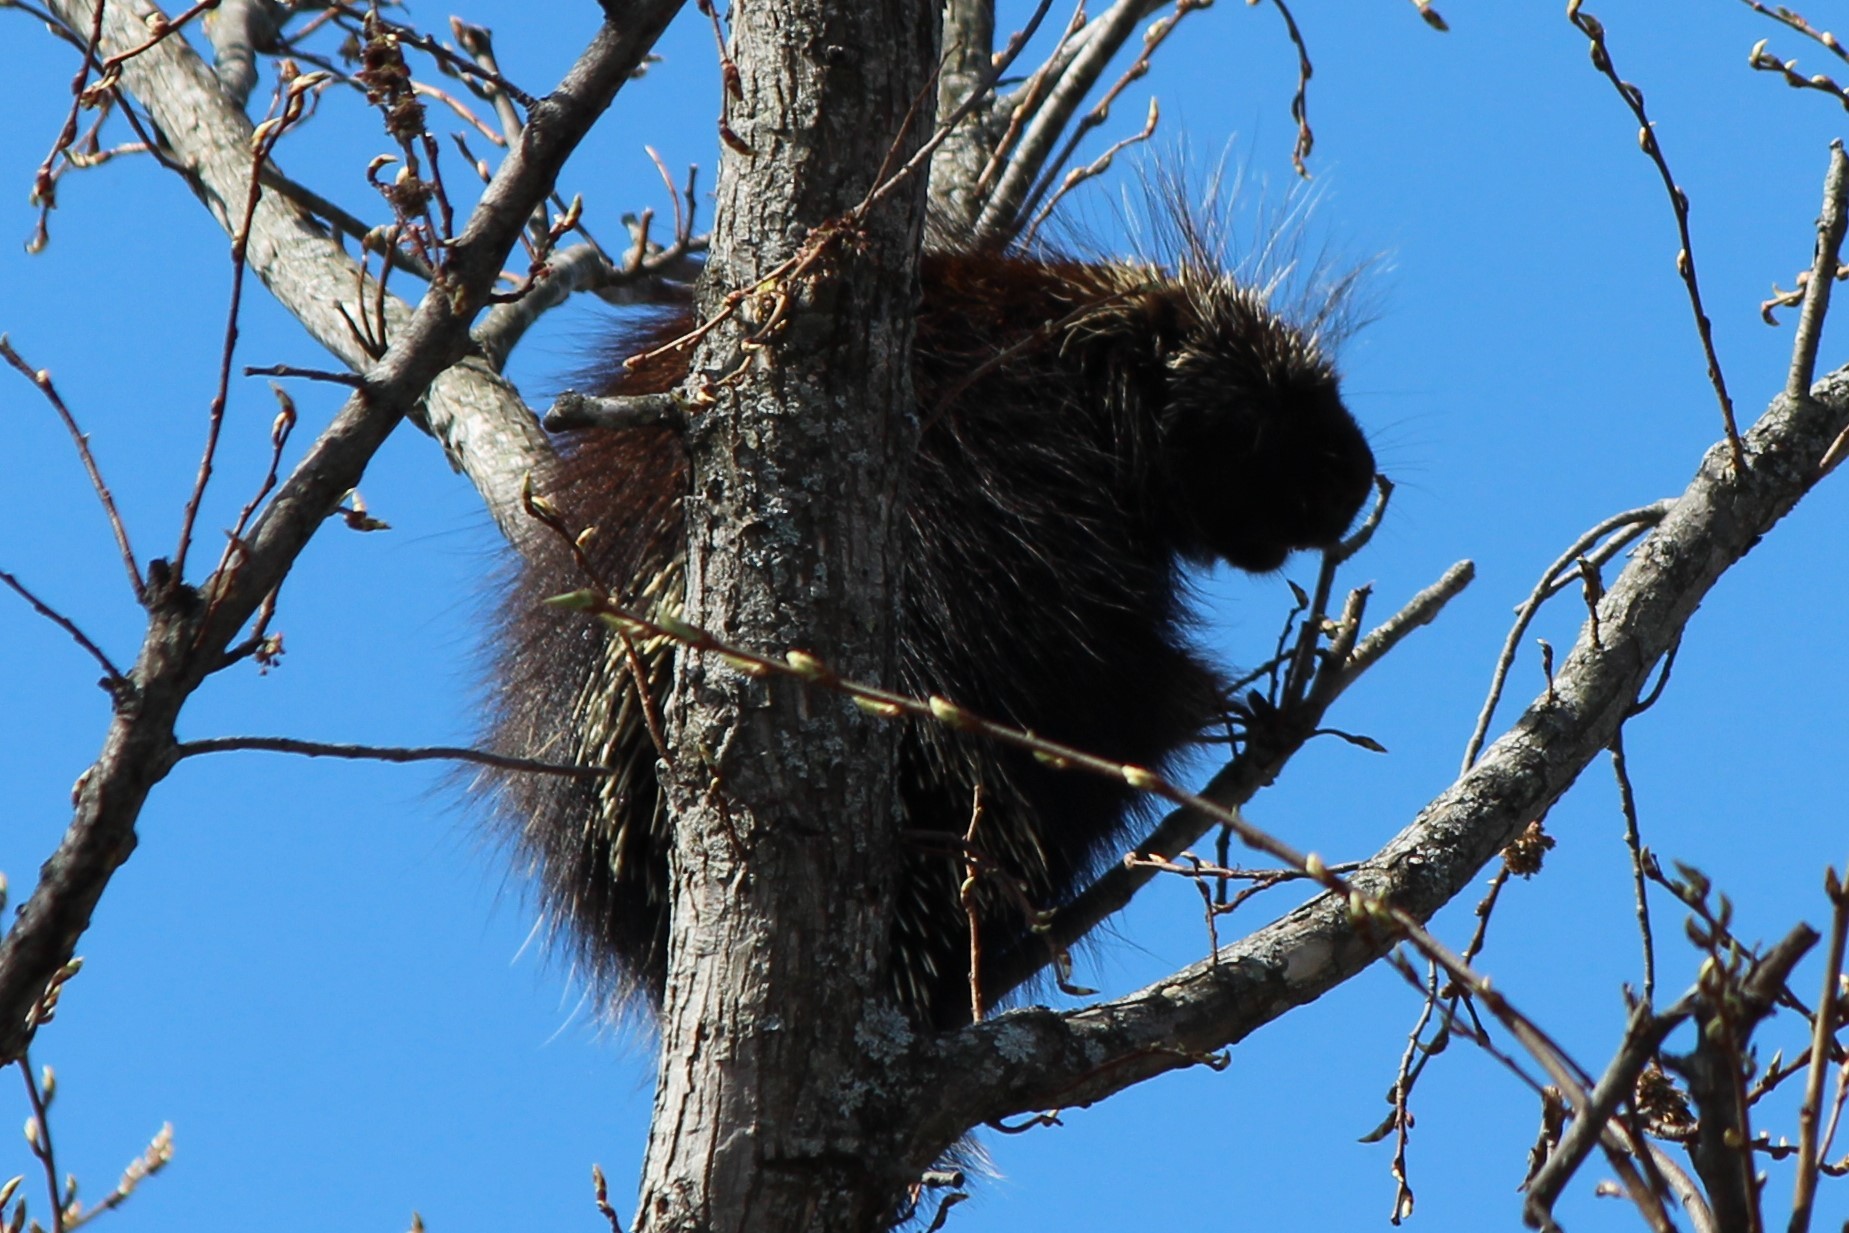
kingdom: Animalia
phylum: Chordata
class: Mammalia
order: Rodentia
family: Erethizontidae
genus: Erethizon
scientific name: Erethizon dorsatus
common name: North american porcupine
